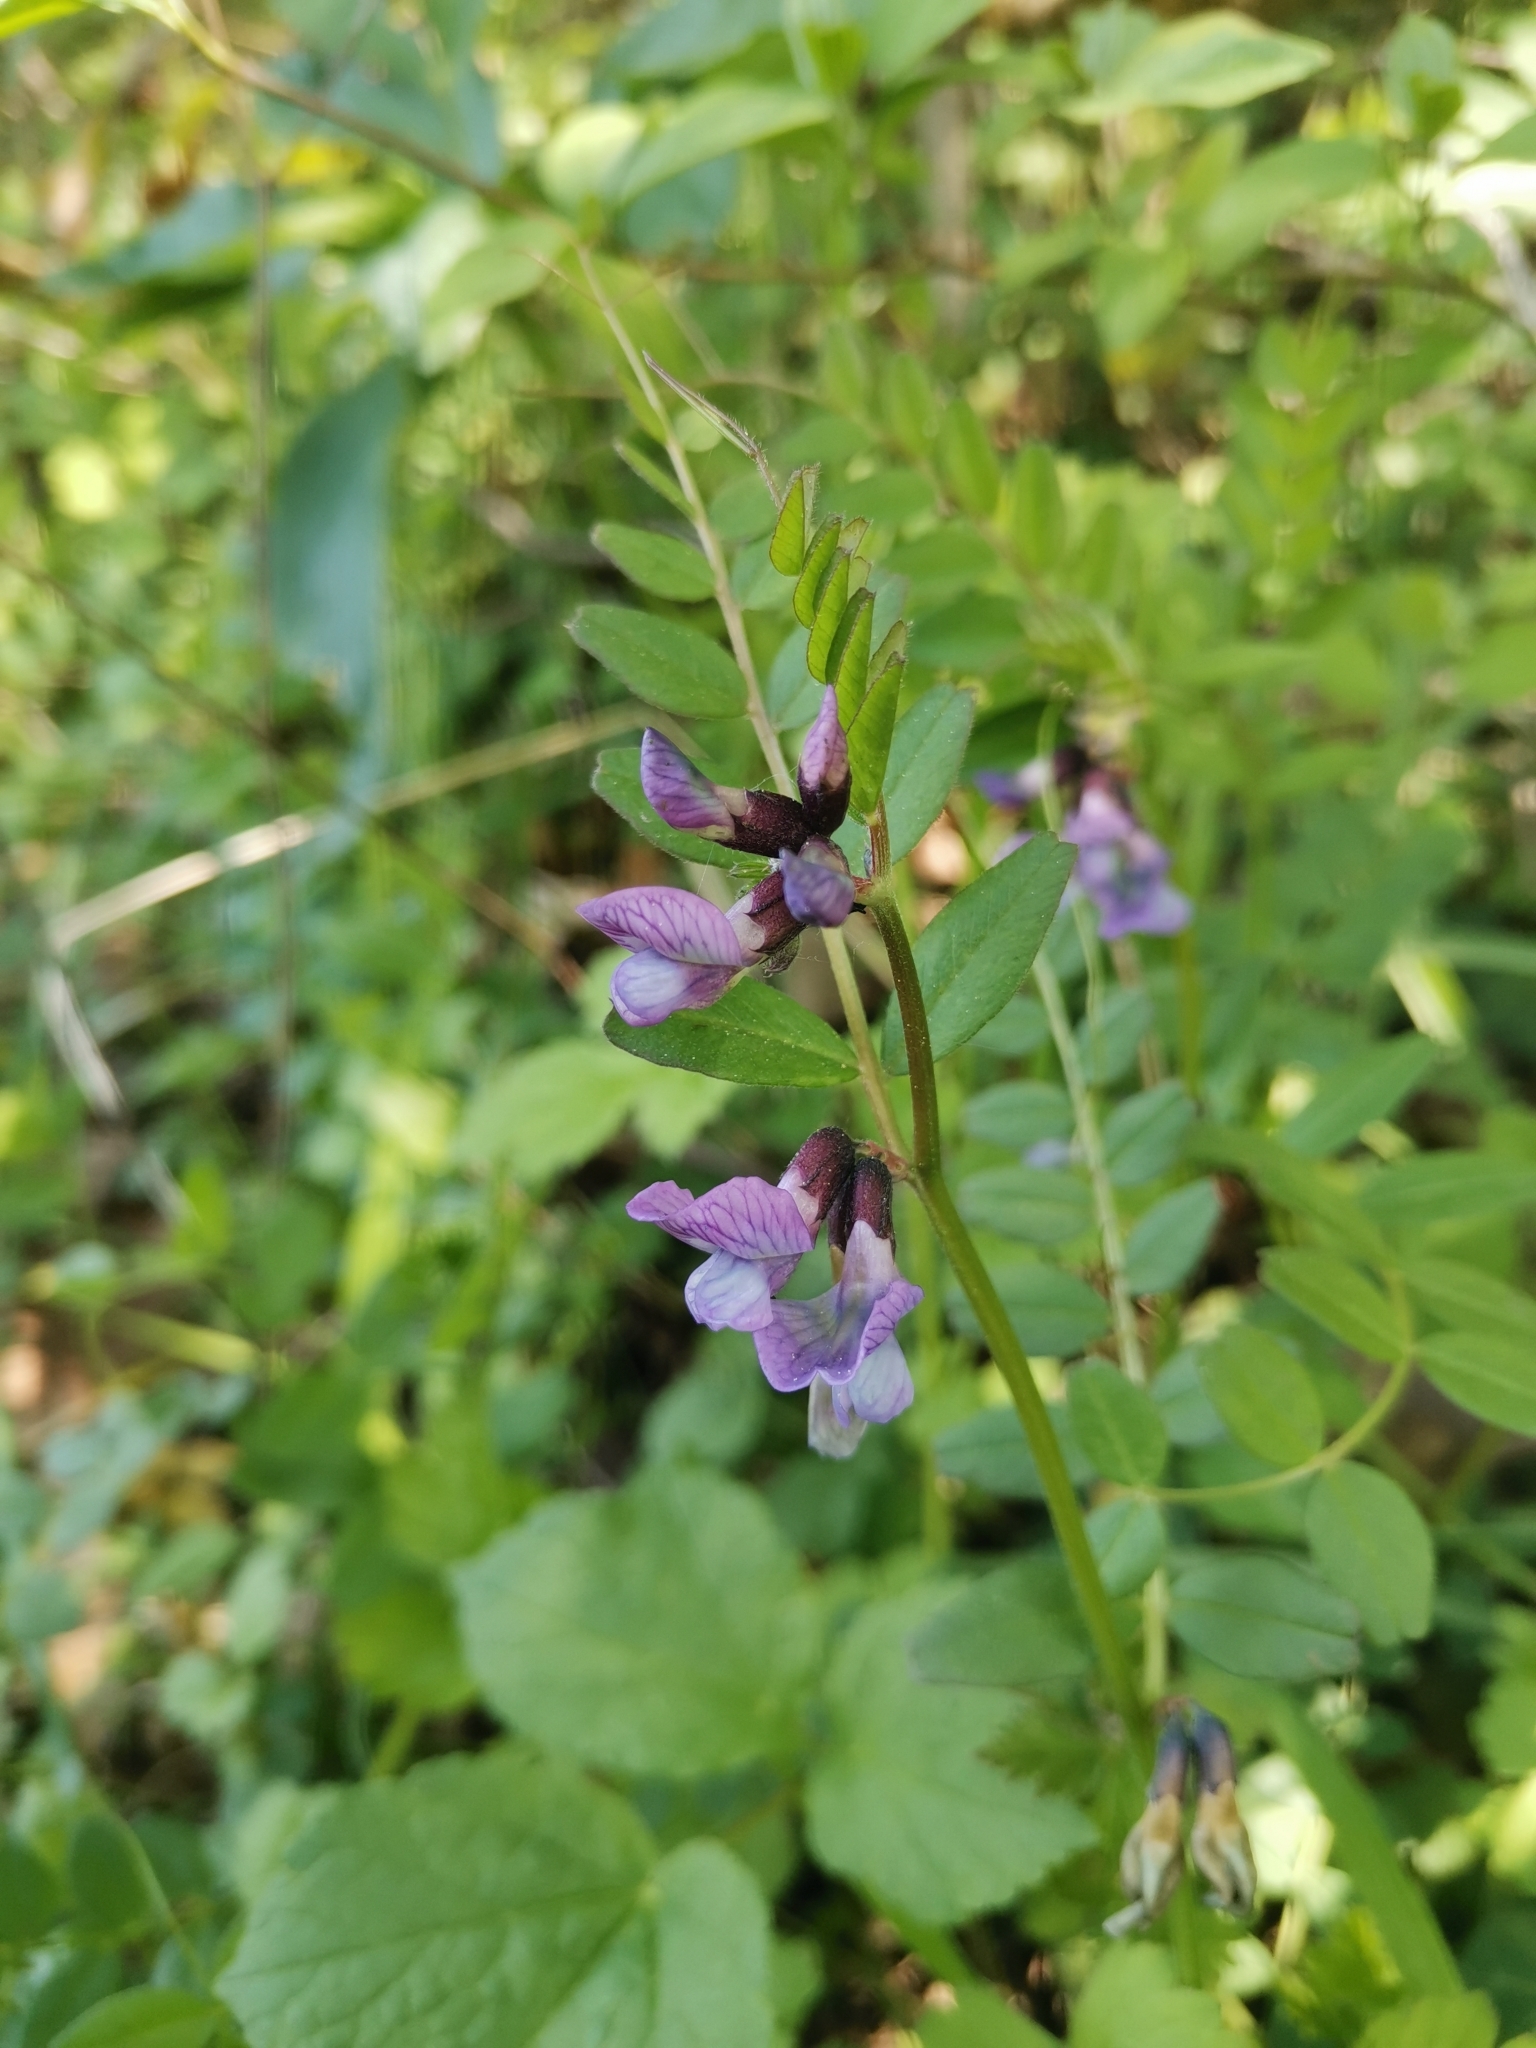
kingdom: Plantae
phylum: Tracheophyta
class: Magnoliopsida
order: Fabales
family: Fabaceae
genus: Vicia
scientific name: Vicia sepium
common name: Bush vetch
